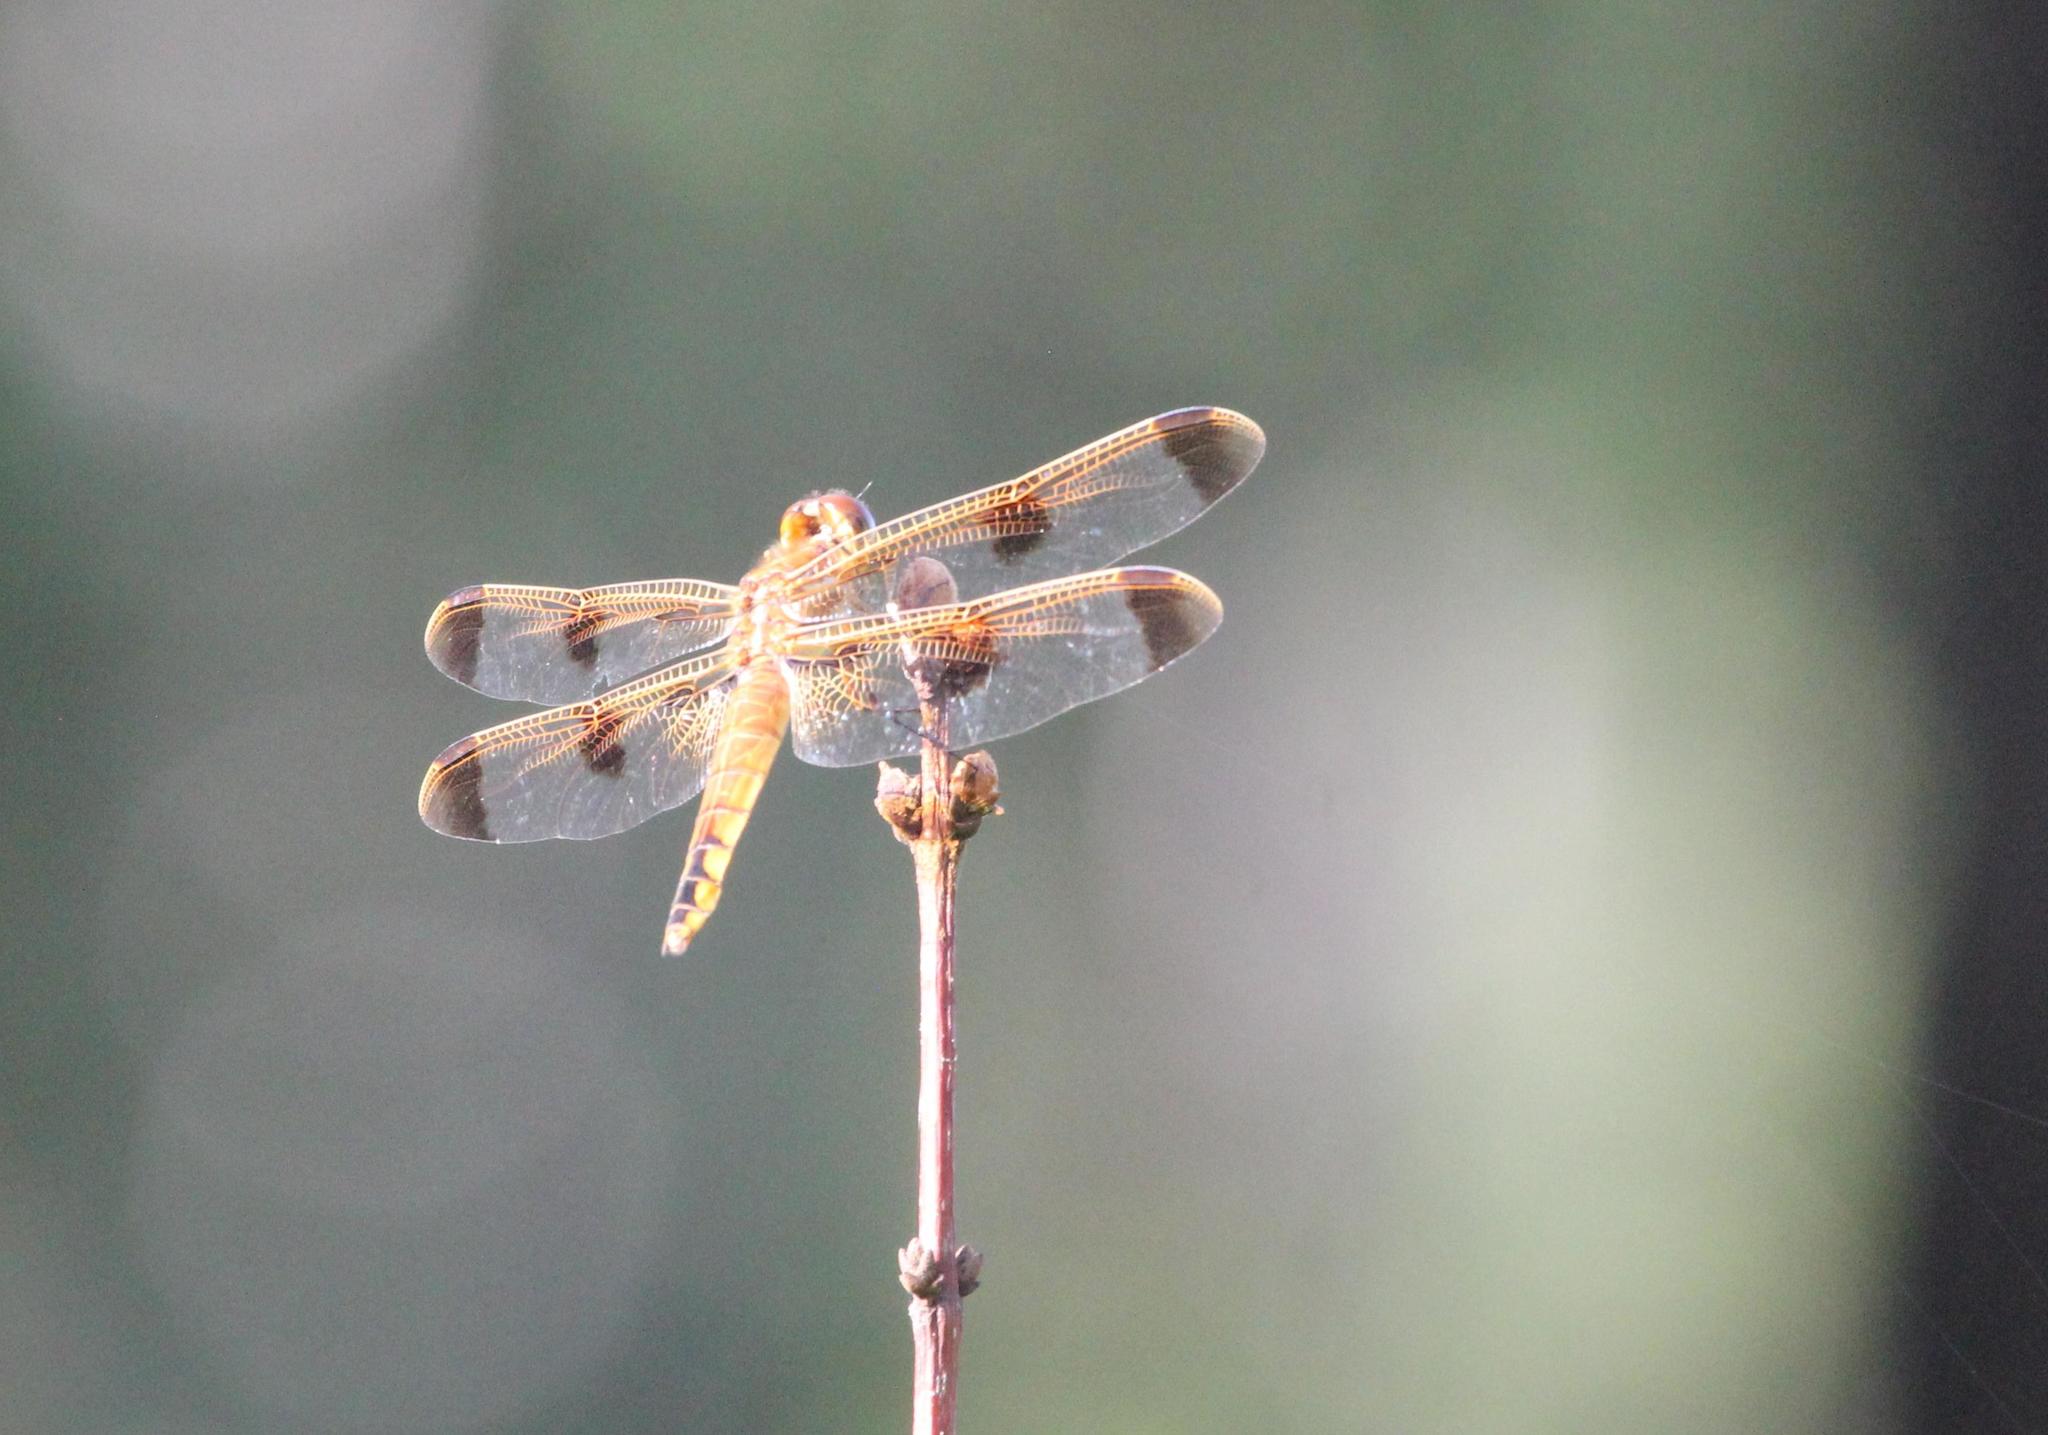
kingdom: Animalia
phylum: Arthropoda
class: Insecta
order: Odonata
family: Libellulidae
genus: Libellula
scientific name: Libellula semifasciata
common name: Painted skimmer
